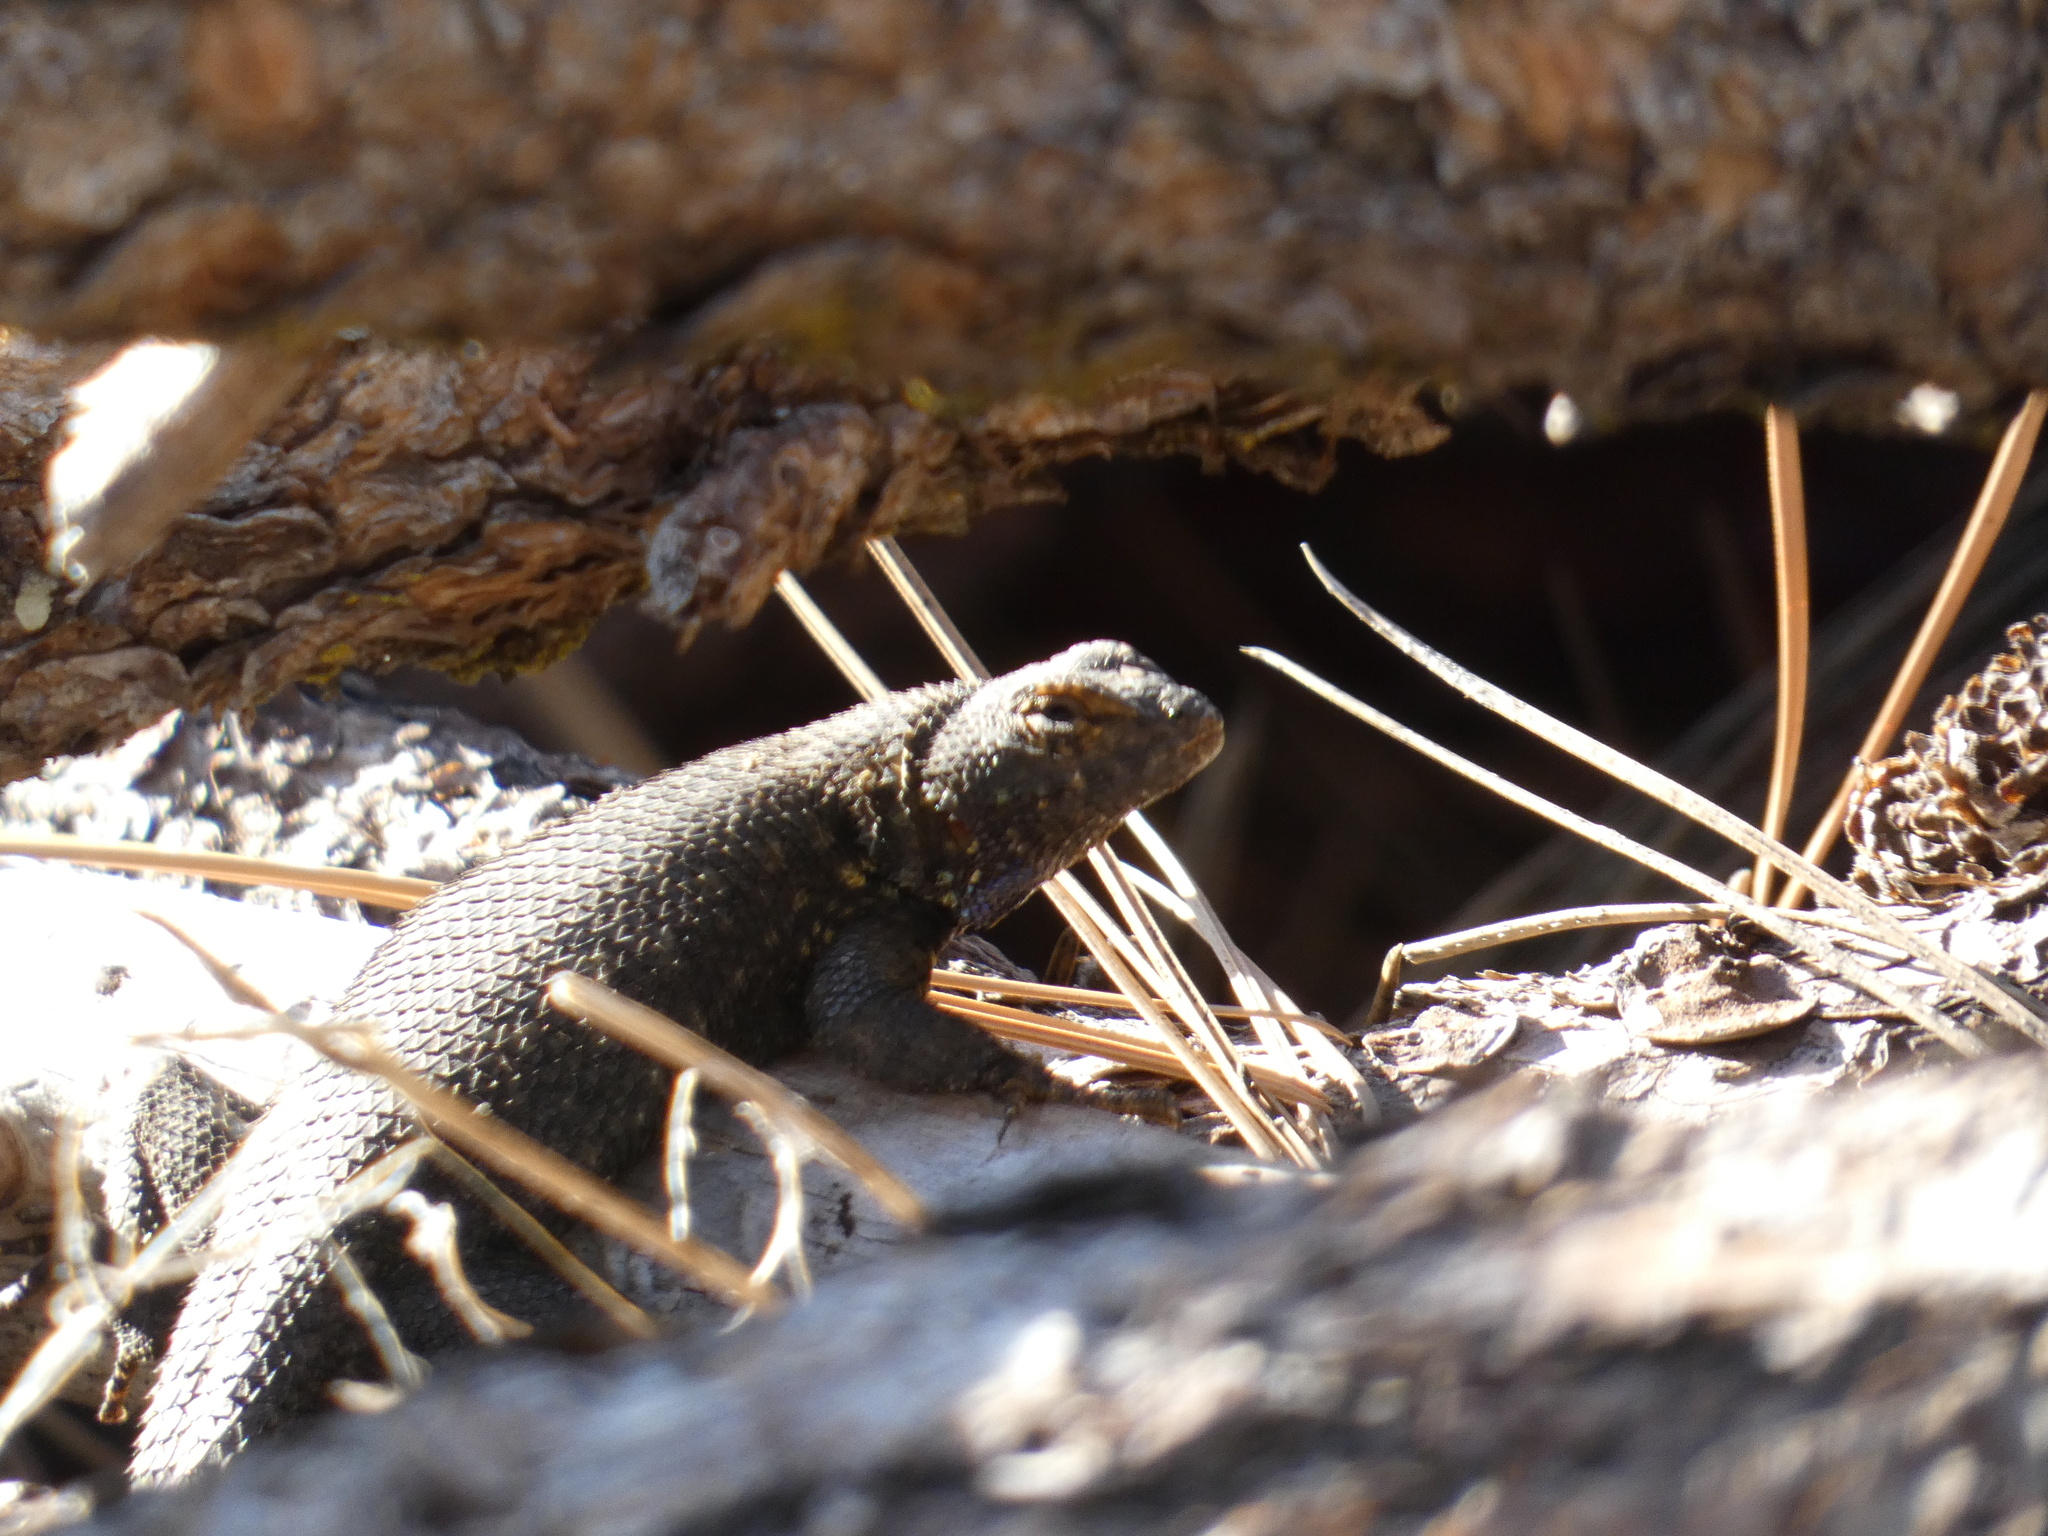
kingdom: Animalia
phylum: Chordata
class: Squamata
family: Phrynosomatidae
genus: Sceloporus
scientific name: Sceloporus graciosus
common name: Sagebrush lizard
